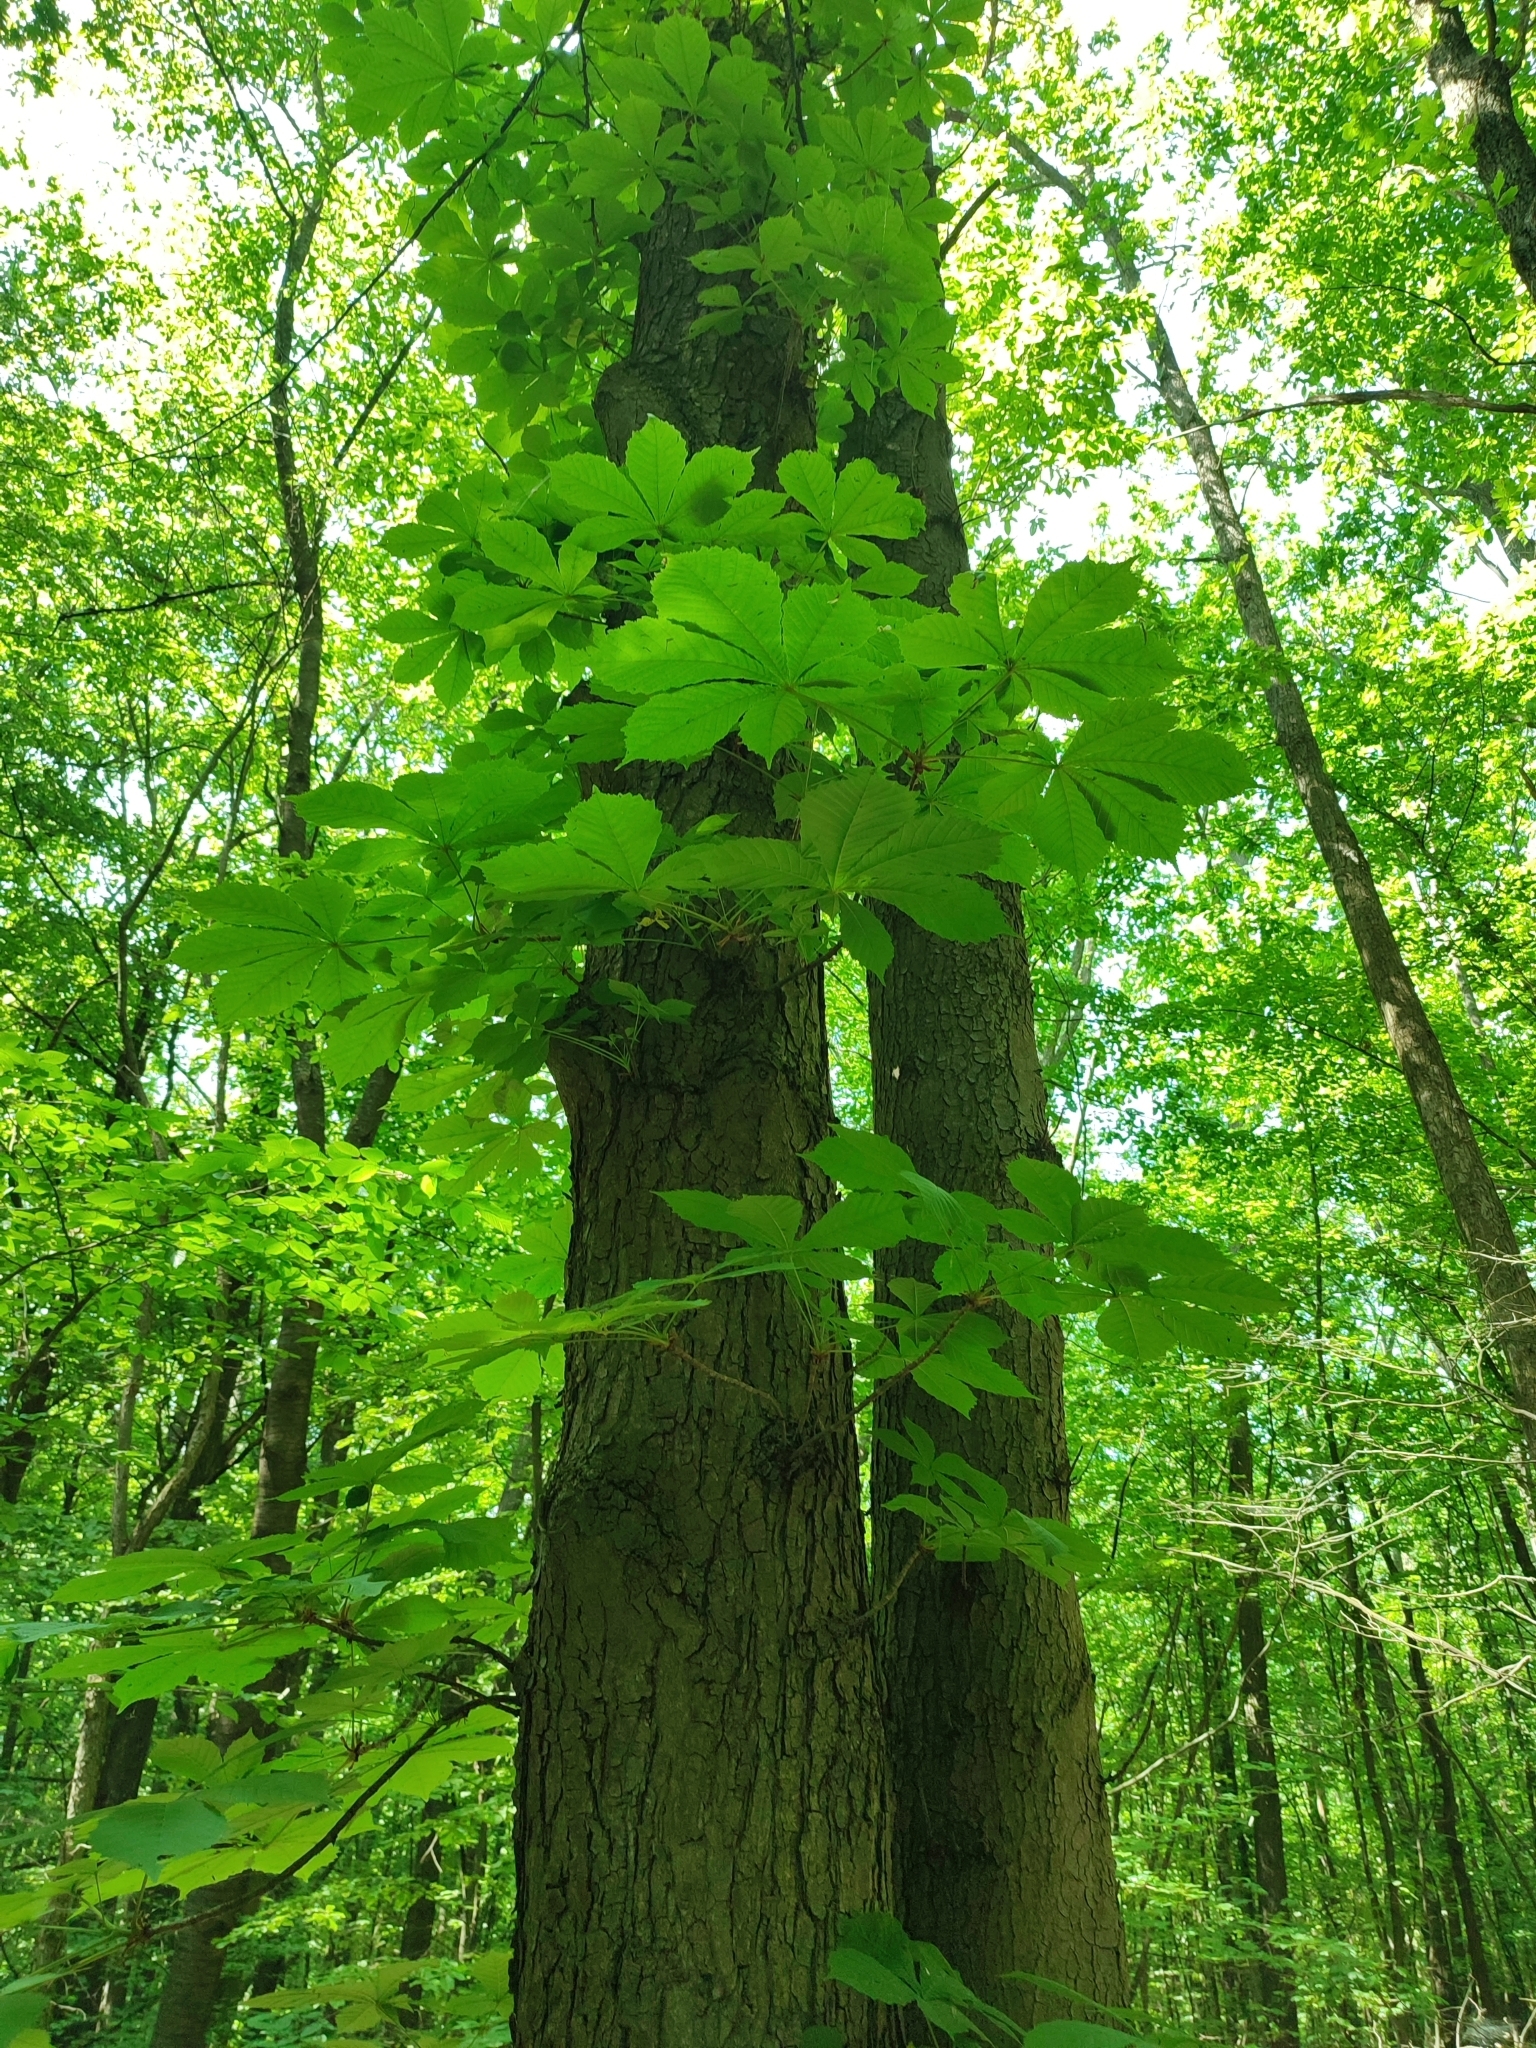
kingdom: Plantae
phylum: Tracheophyta
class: Magnoliopsida
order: Sapindales
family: Sapindaceae
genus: Aesculus
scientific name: Aesculus hippocastanum
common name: Horse-chestnut
